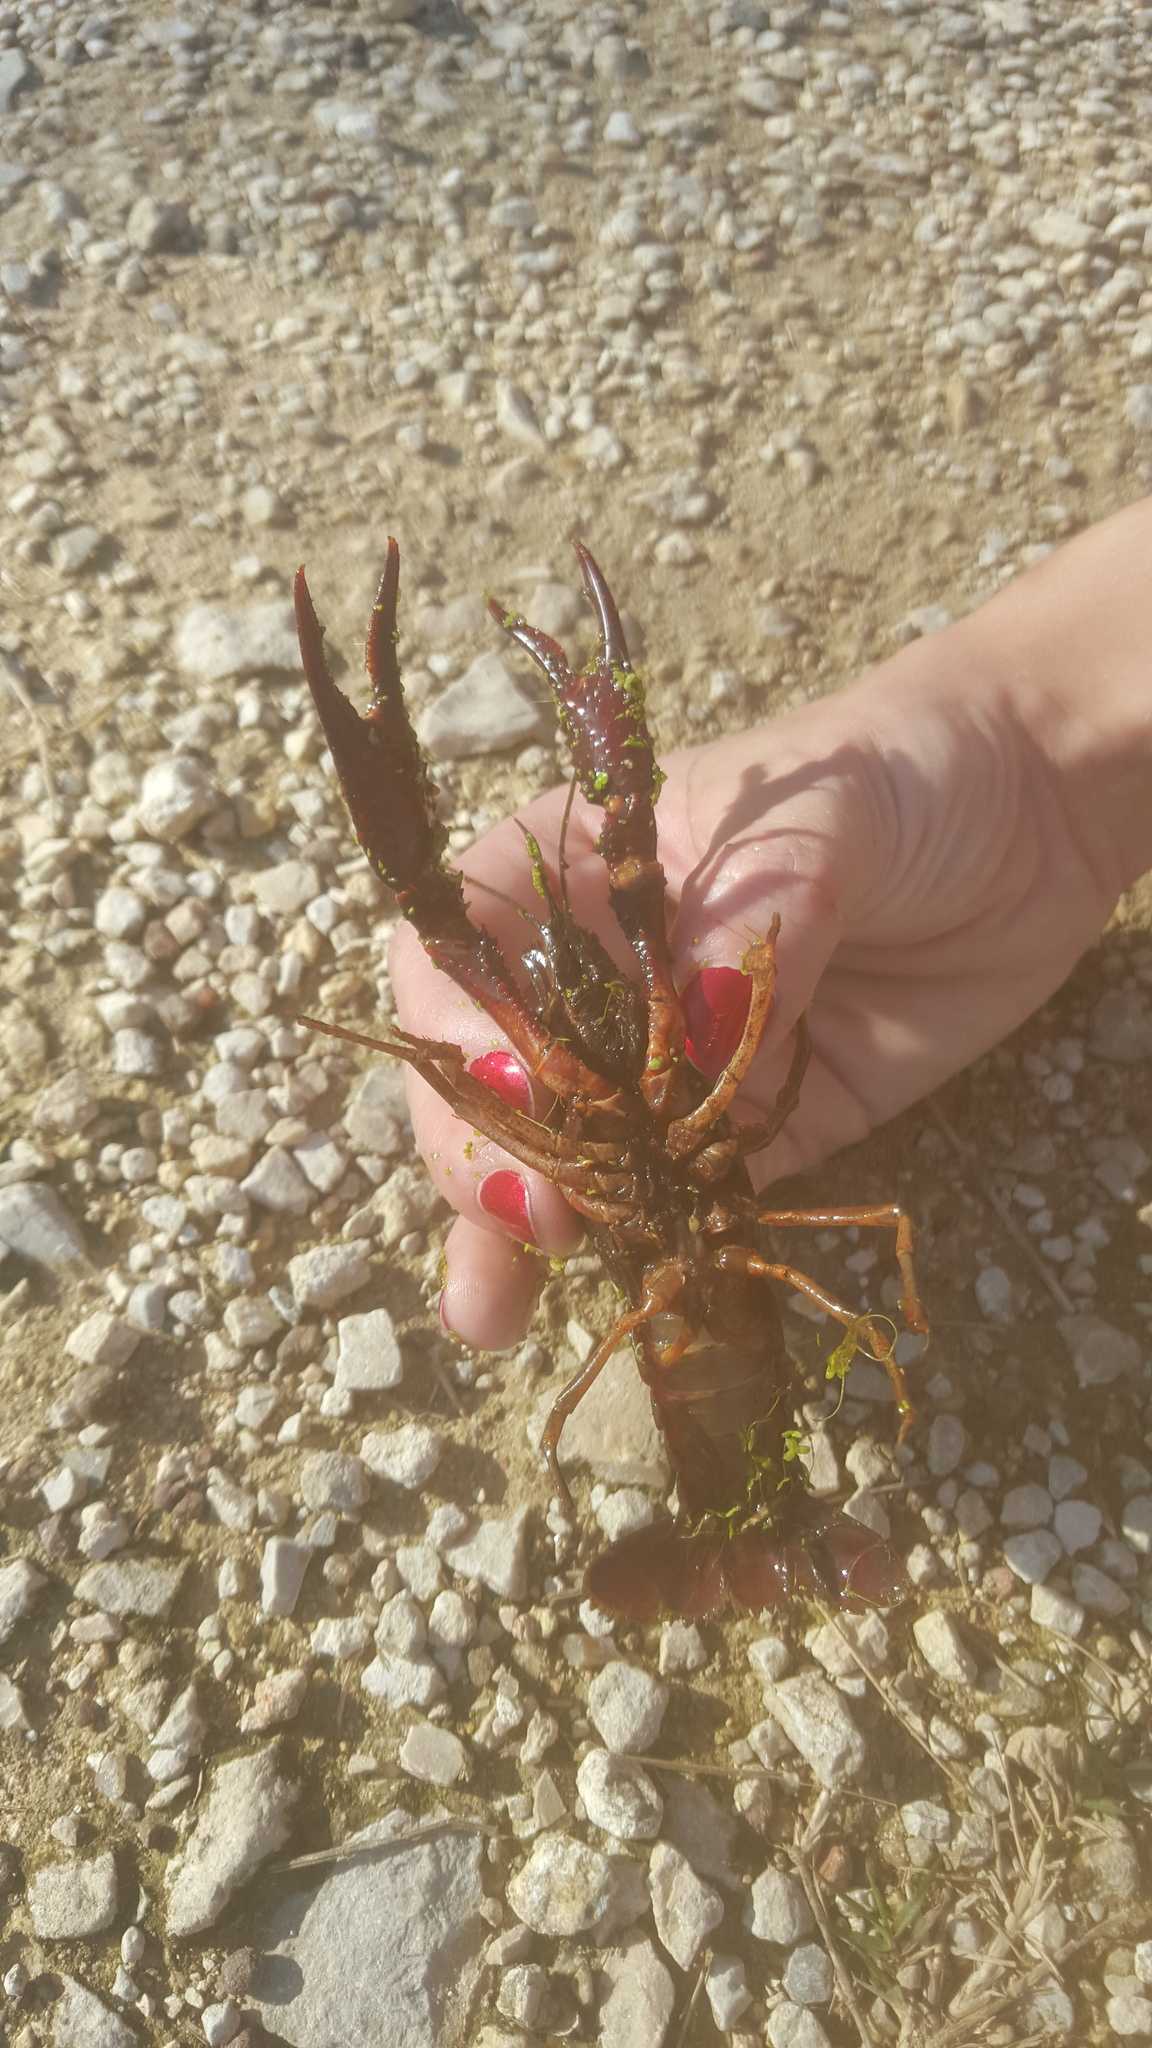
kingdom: Animalia
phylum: Arthropoda
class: Malacostraca
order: Decapoda
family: Cambaridae
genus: Procambarus
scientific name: Procambarus clarkii
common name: Red swamp crayfish
